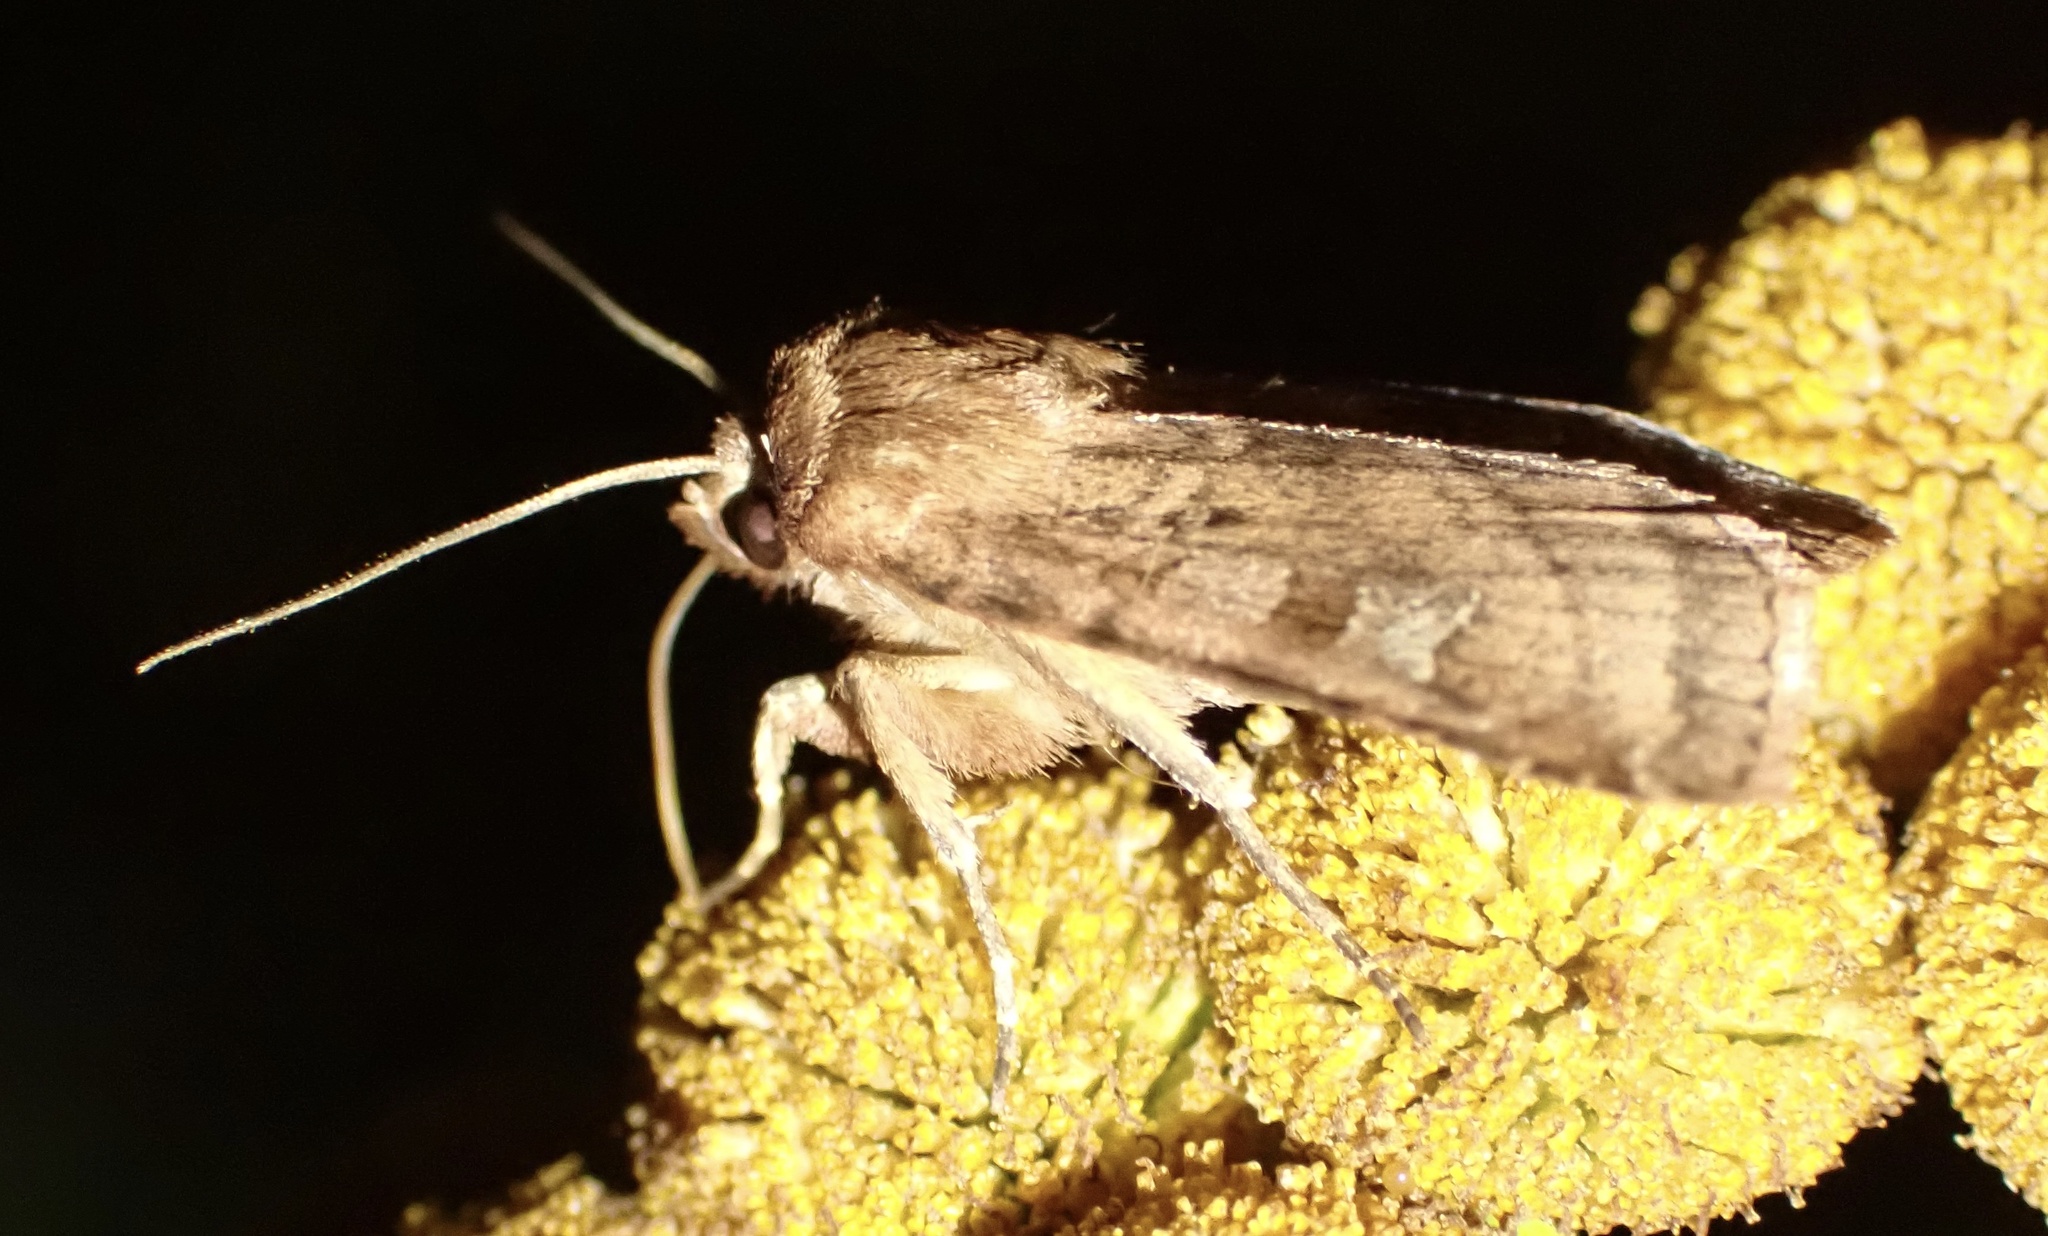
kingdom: Animalia
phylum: Arthropoda
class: Insecta
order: Lepidoptera
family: Noctuidae
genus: Diarsia
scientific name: Diarsia rubi
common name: Small square-spot
